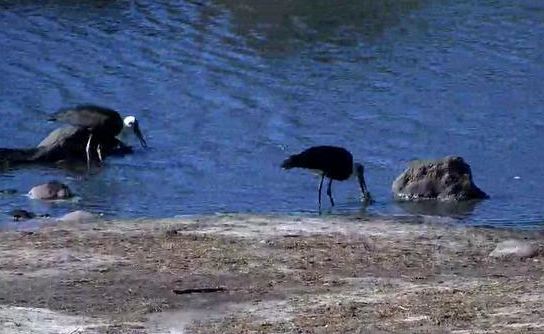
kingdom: Animalia
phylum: Chordata
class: Aves
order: Ciconiiformes
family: Ciconiidae
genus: Ciconia
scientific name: Ciconia microscelis
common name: African woollyneck
